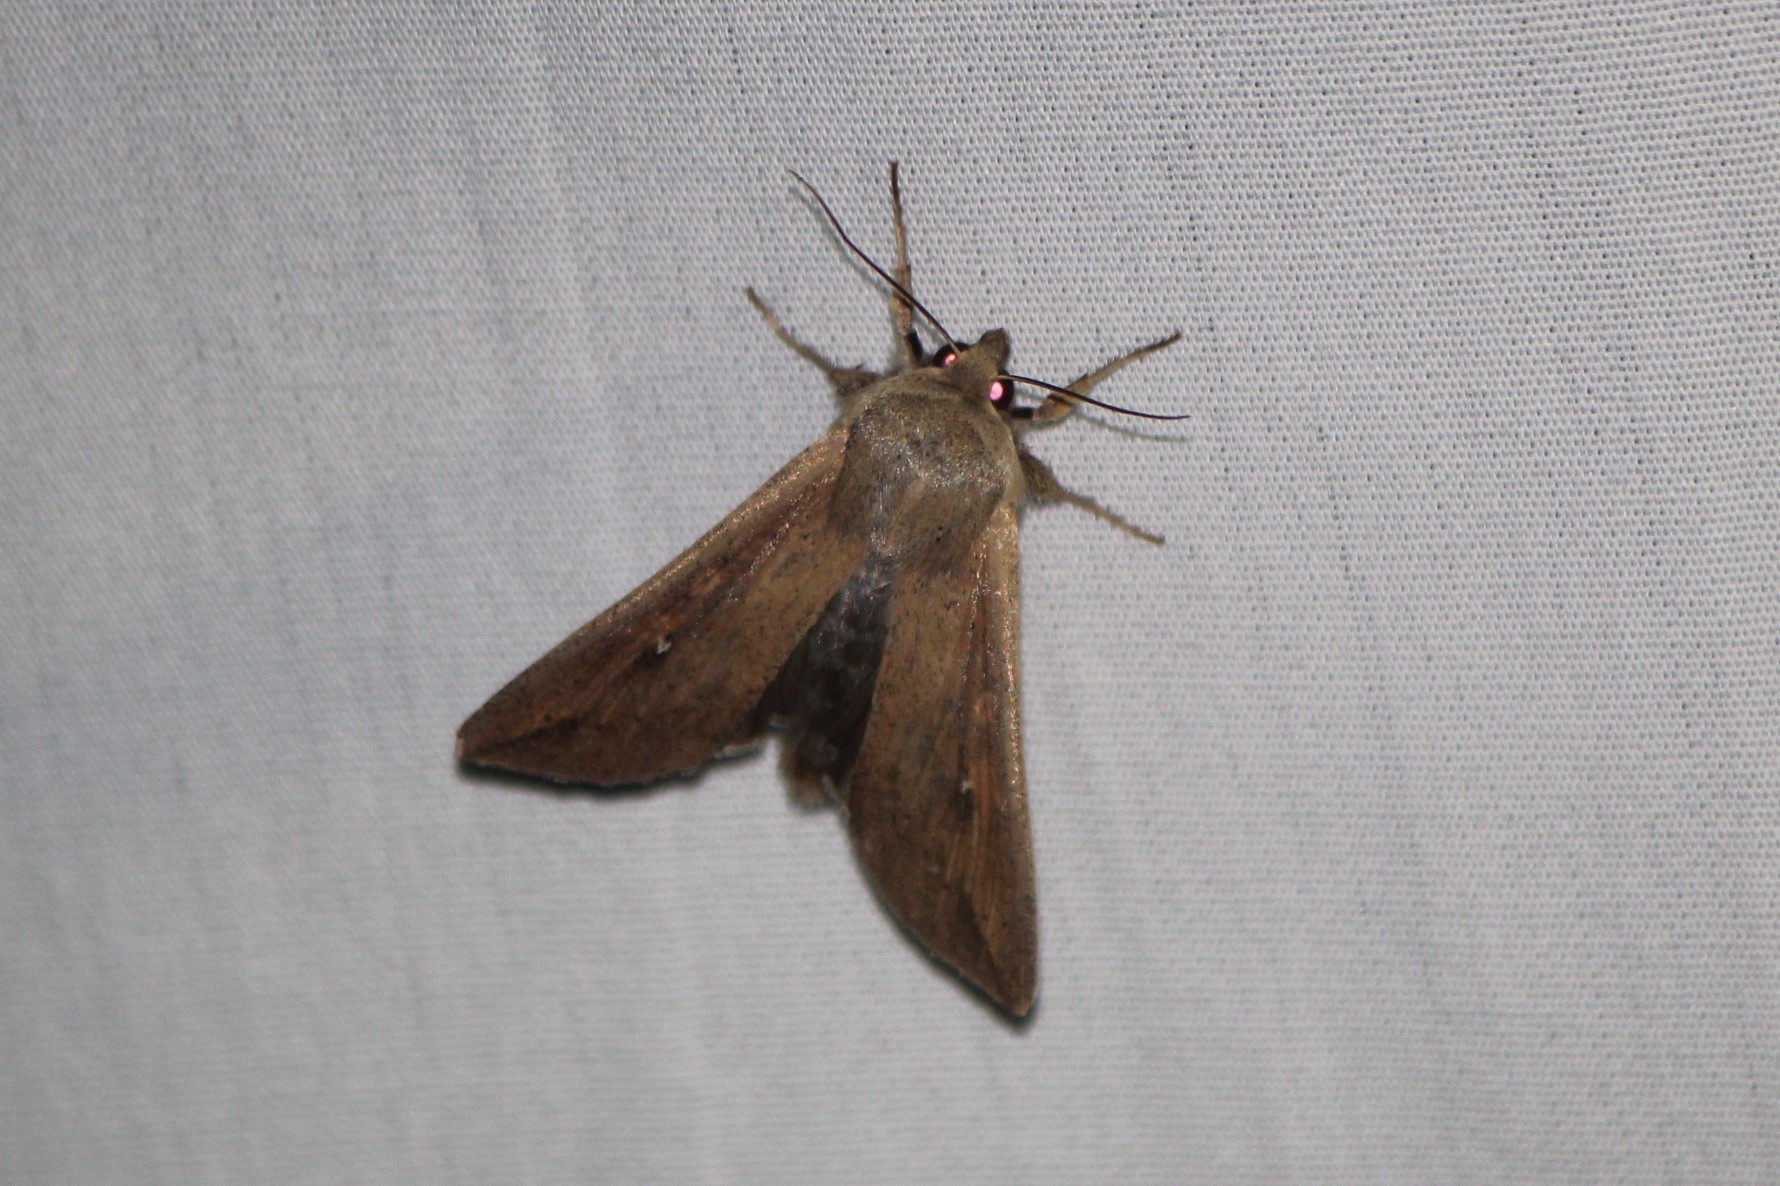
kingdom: Animalia
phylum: Arthropoda
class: Insecta
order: Lepidoptera
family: Noctuidae
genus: Mythimna
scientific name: Mythimna unipuncta
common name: White-speck
